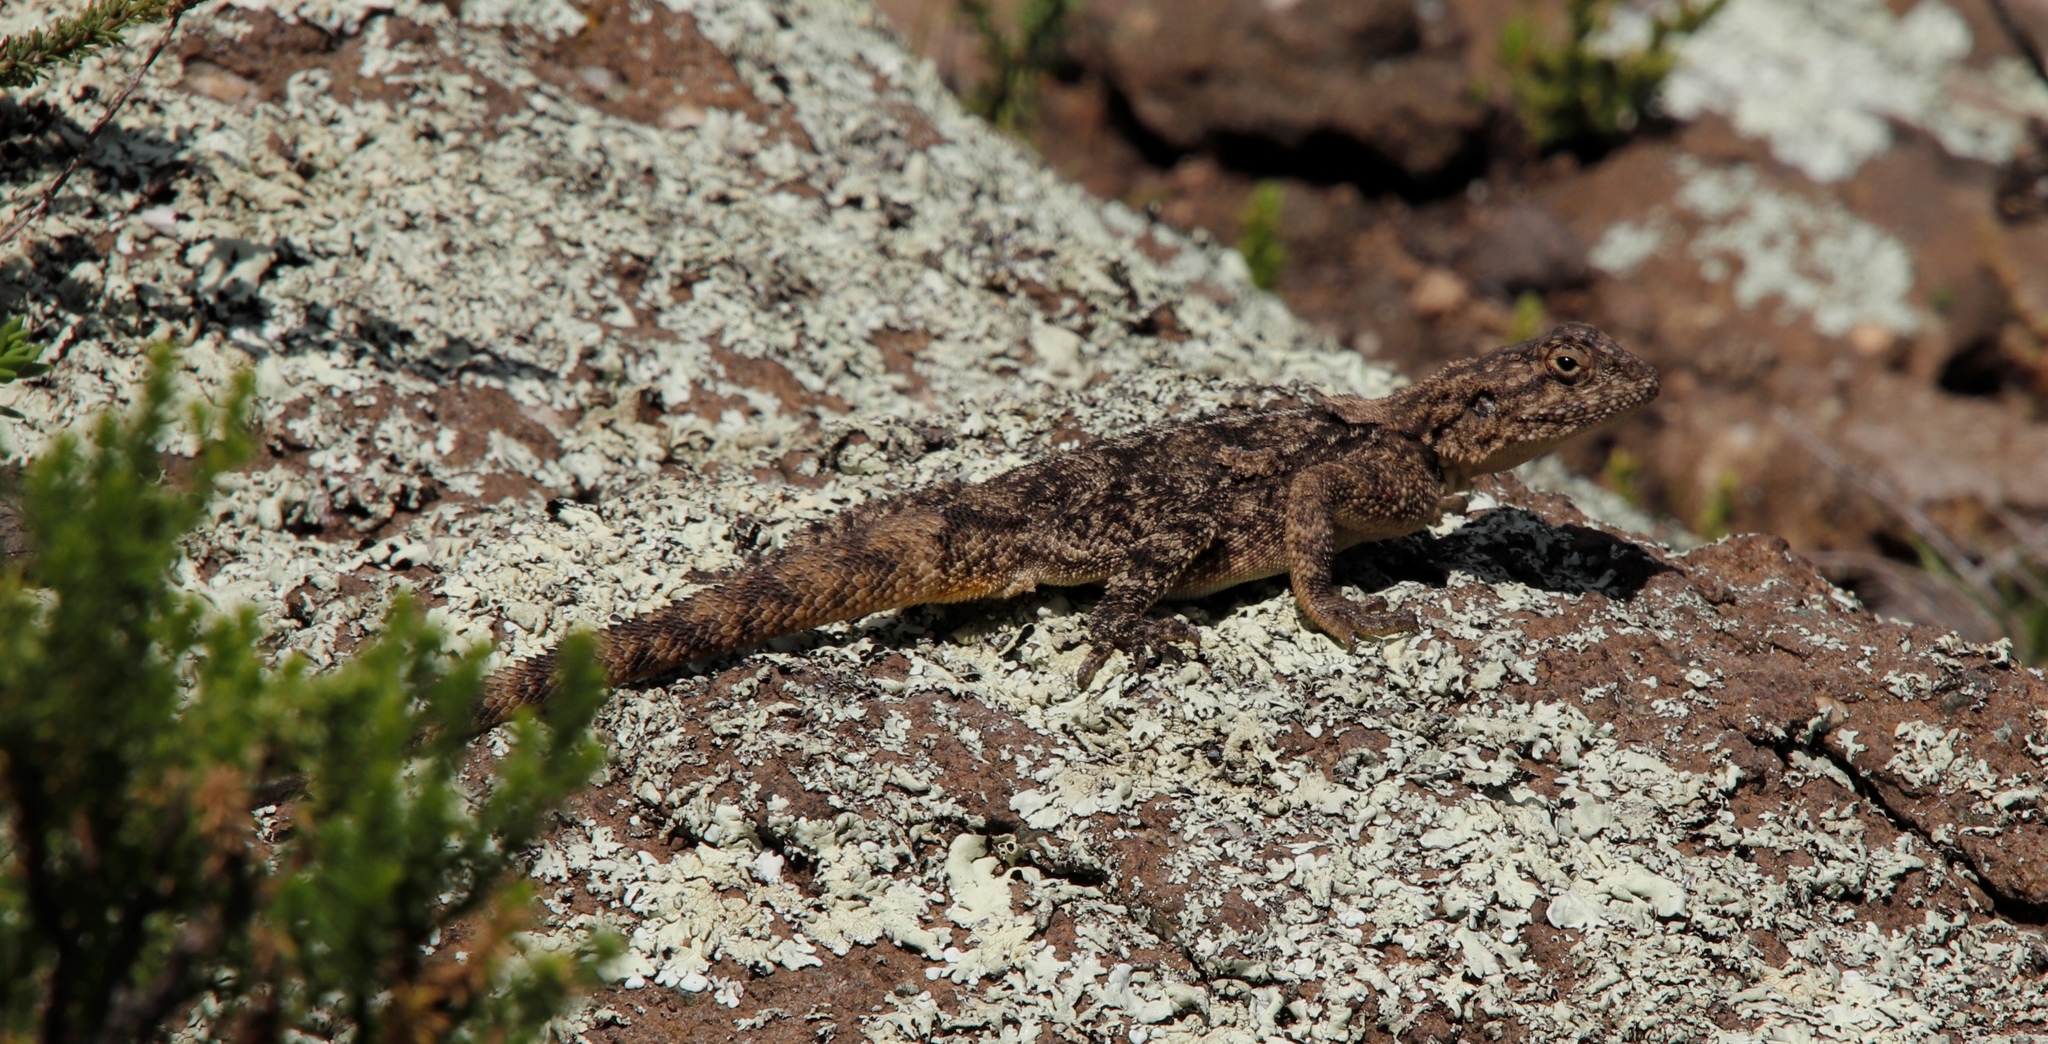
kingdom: Animalia
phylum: Chordata
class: Squamata
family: Agamidae
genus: Agama
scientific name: Agama atra
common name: Southern african rock agama
